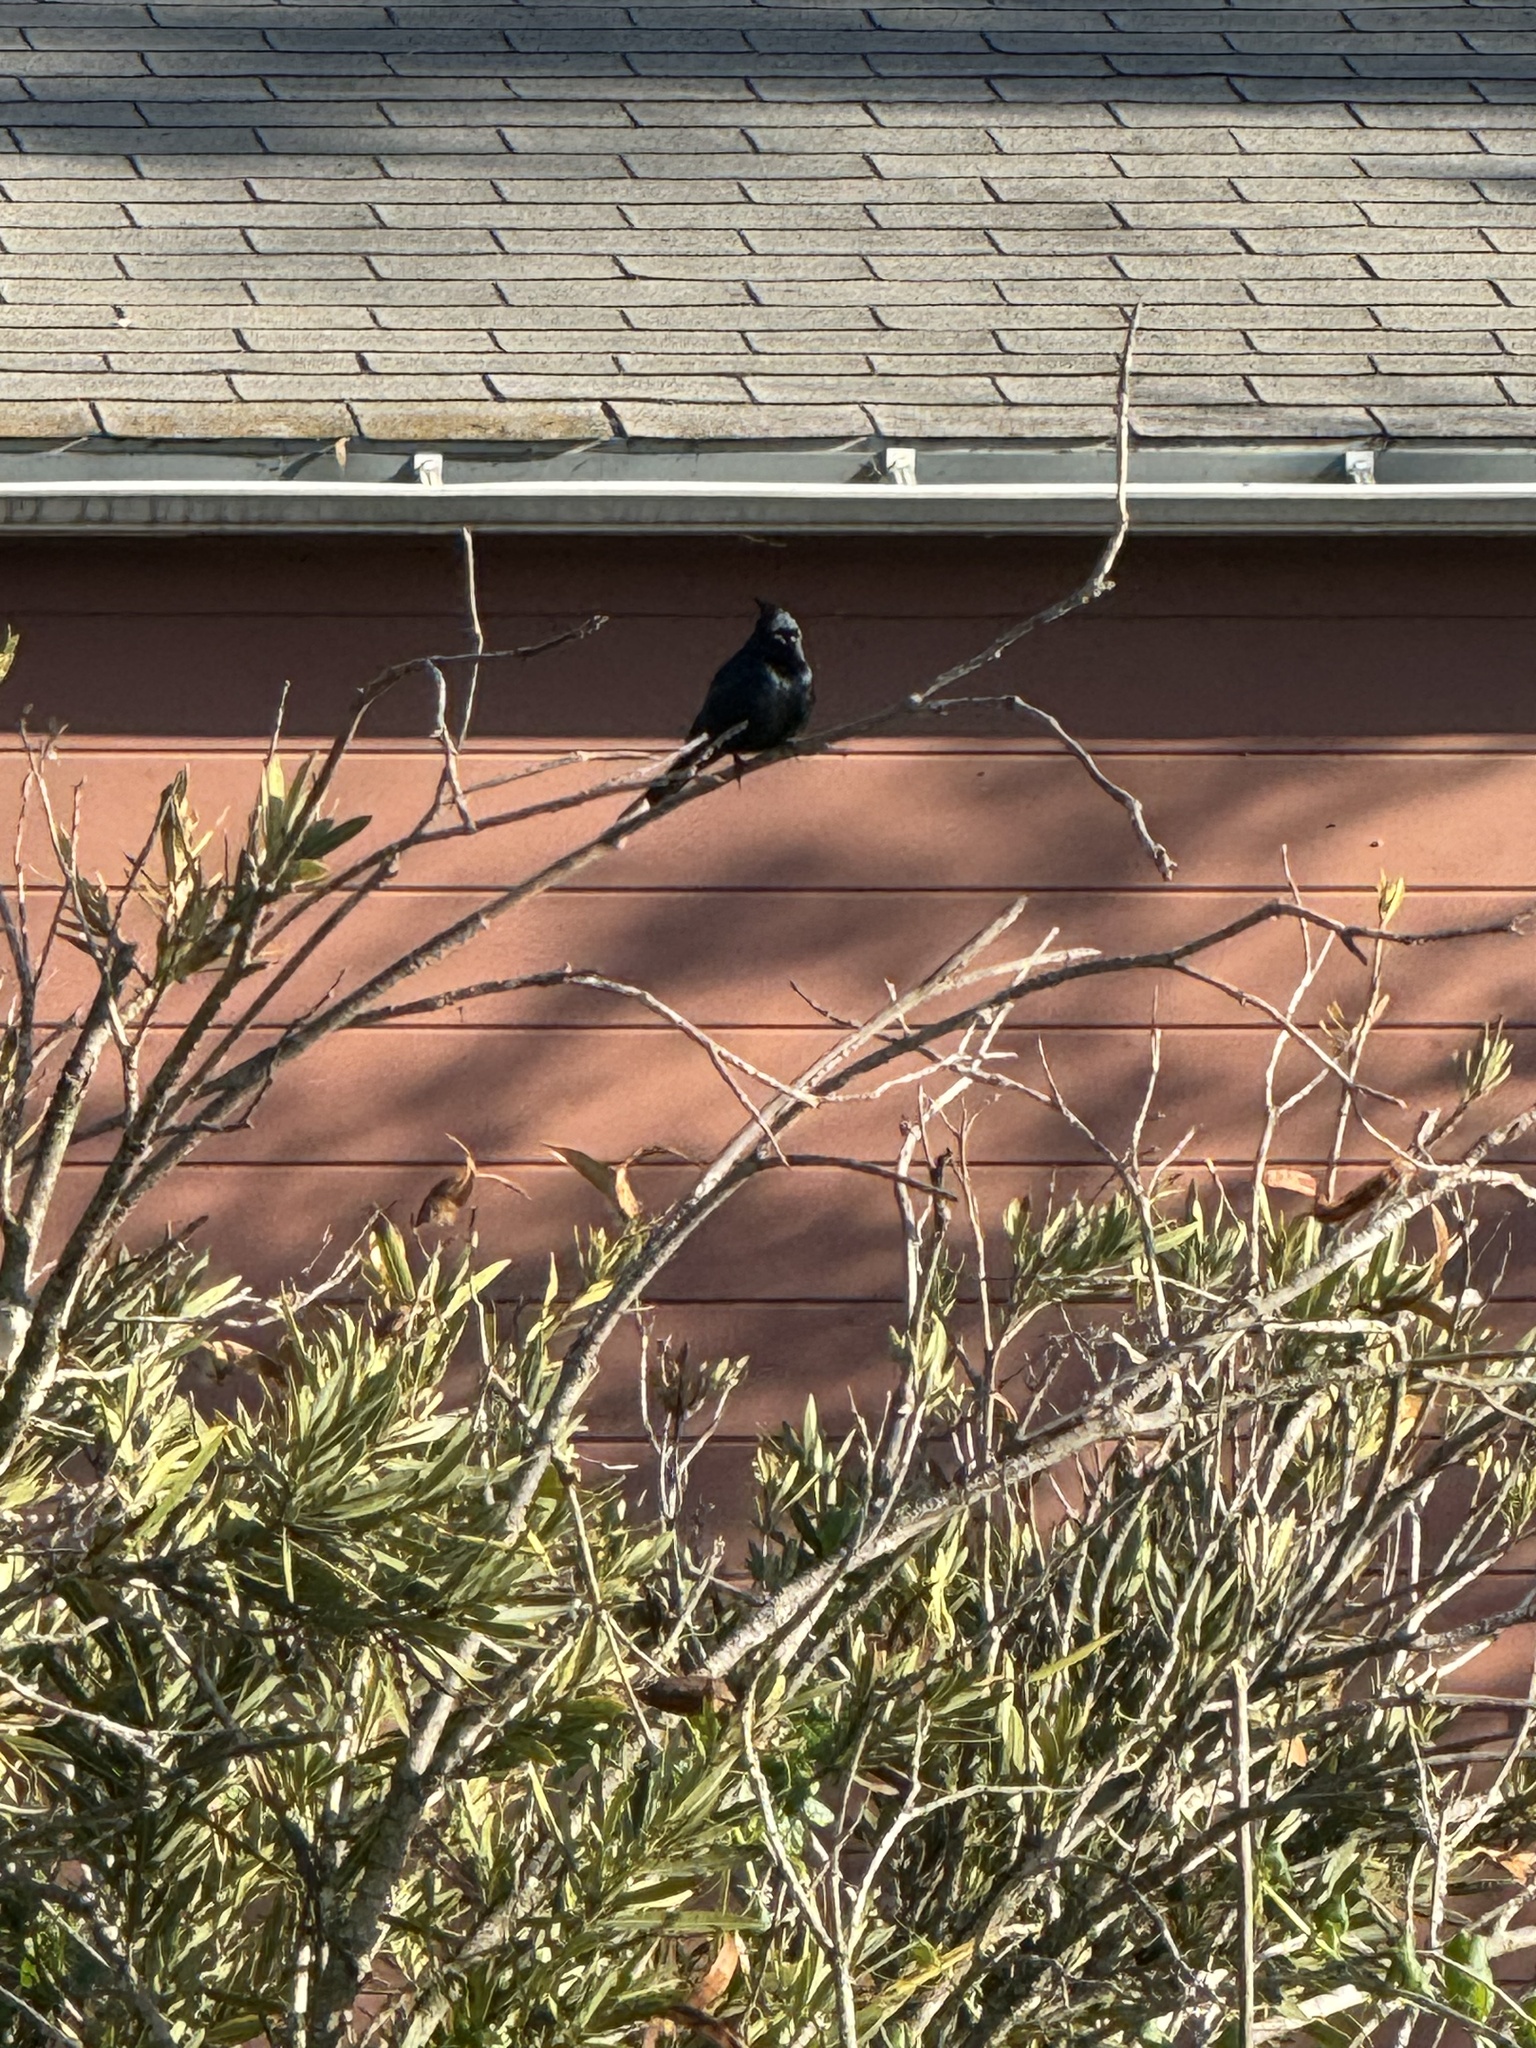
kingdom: Animalia
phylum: Chordata
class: Aves
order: Passeriformes
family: Ptilogonatidae
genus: Phainopepla
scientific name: Phainopepla nitens
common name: Phainopepla
